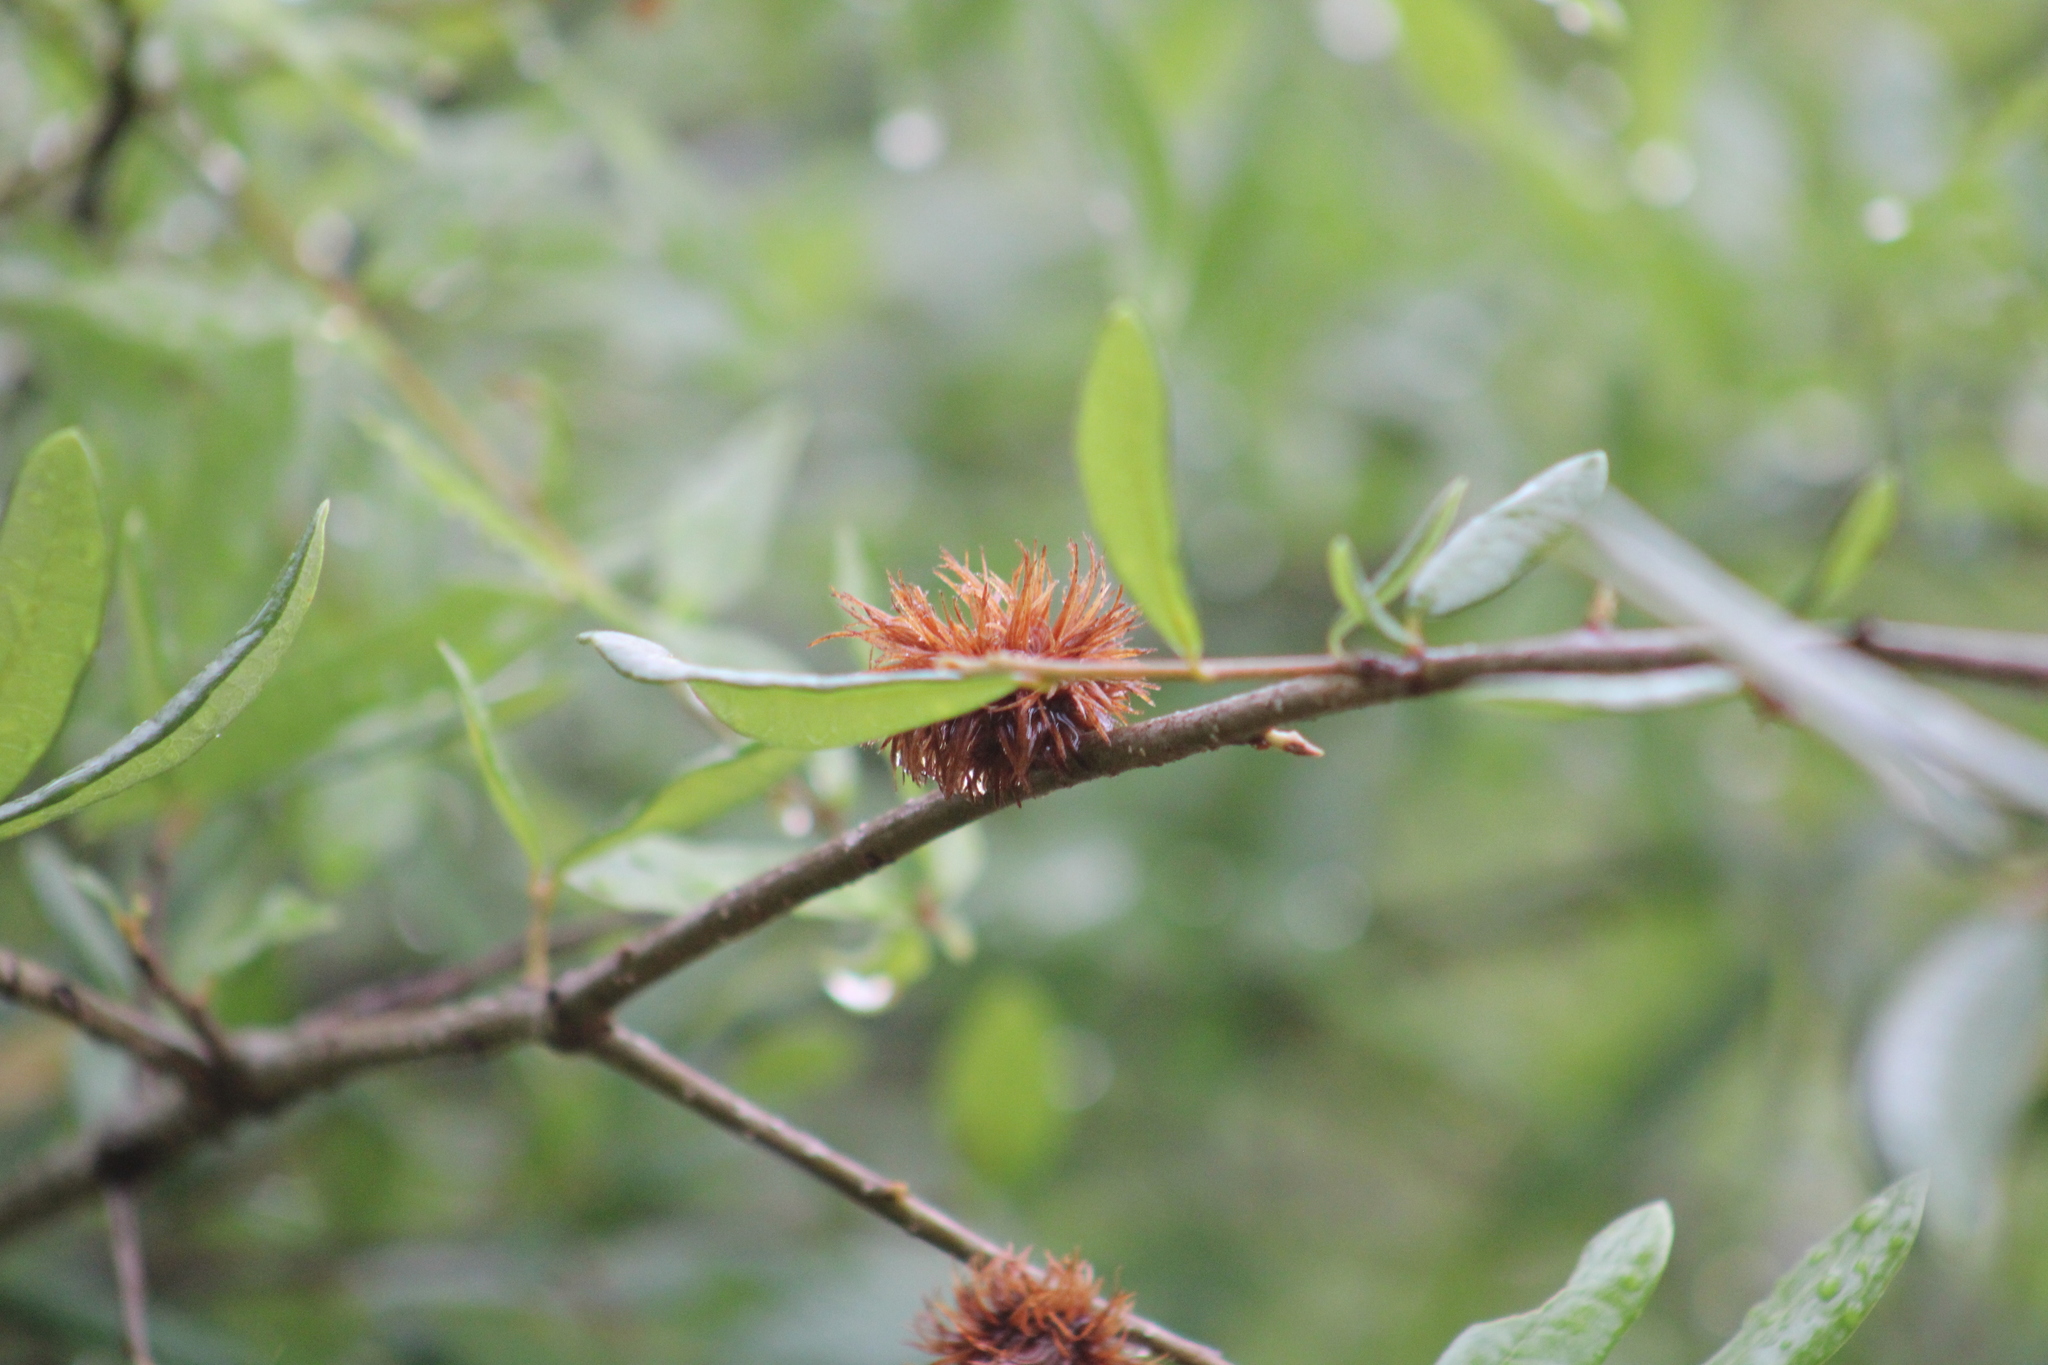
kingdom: Animalia
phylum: Arthropoda
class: Insecta
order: Hymenoptera
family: Cynipidae
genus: Andricus
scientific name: Andricus quercusfoliatus
